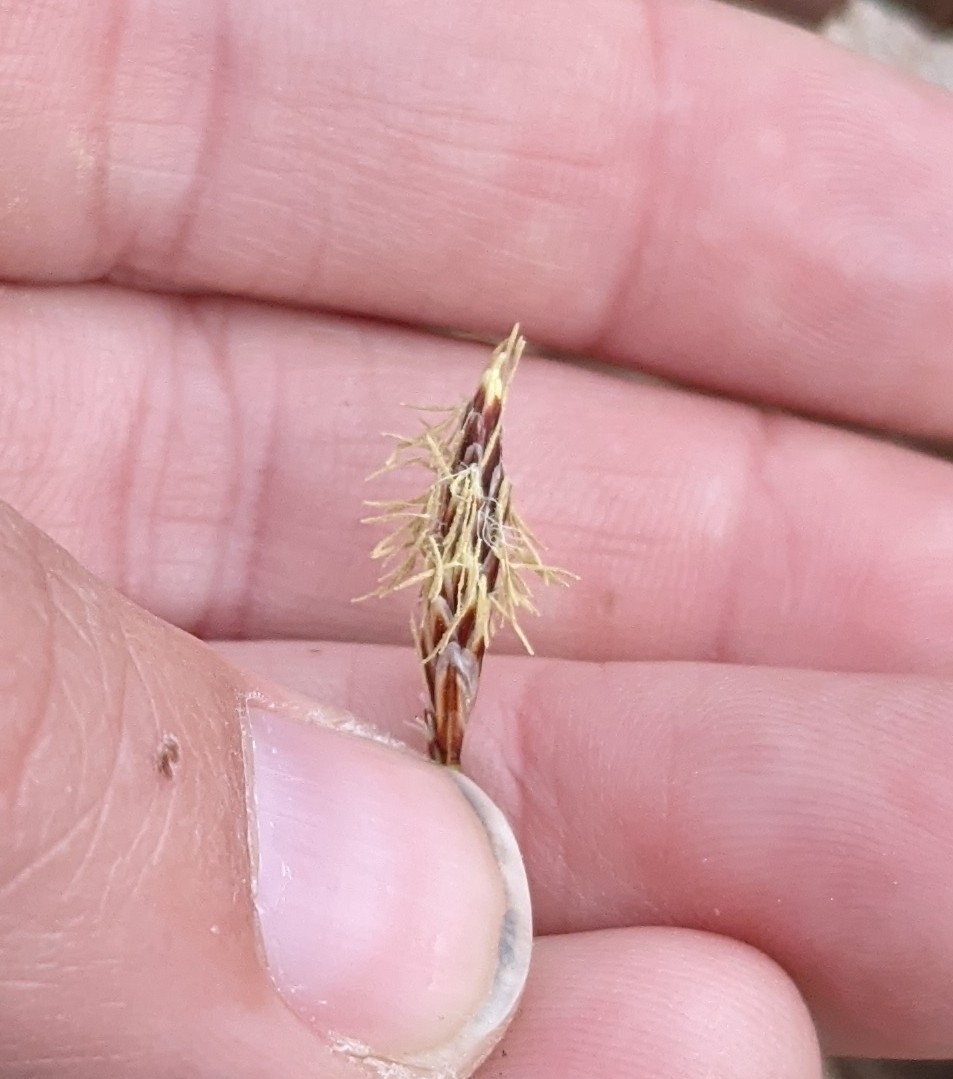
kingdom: Plantae
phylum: Tracheophyta
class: Liliopsida
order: Poales
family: Cyperaceae
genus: Carex
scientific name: Carex pensylvanica
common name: Common oak sedge
